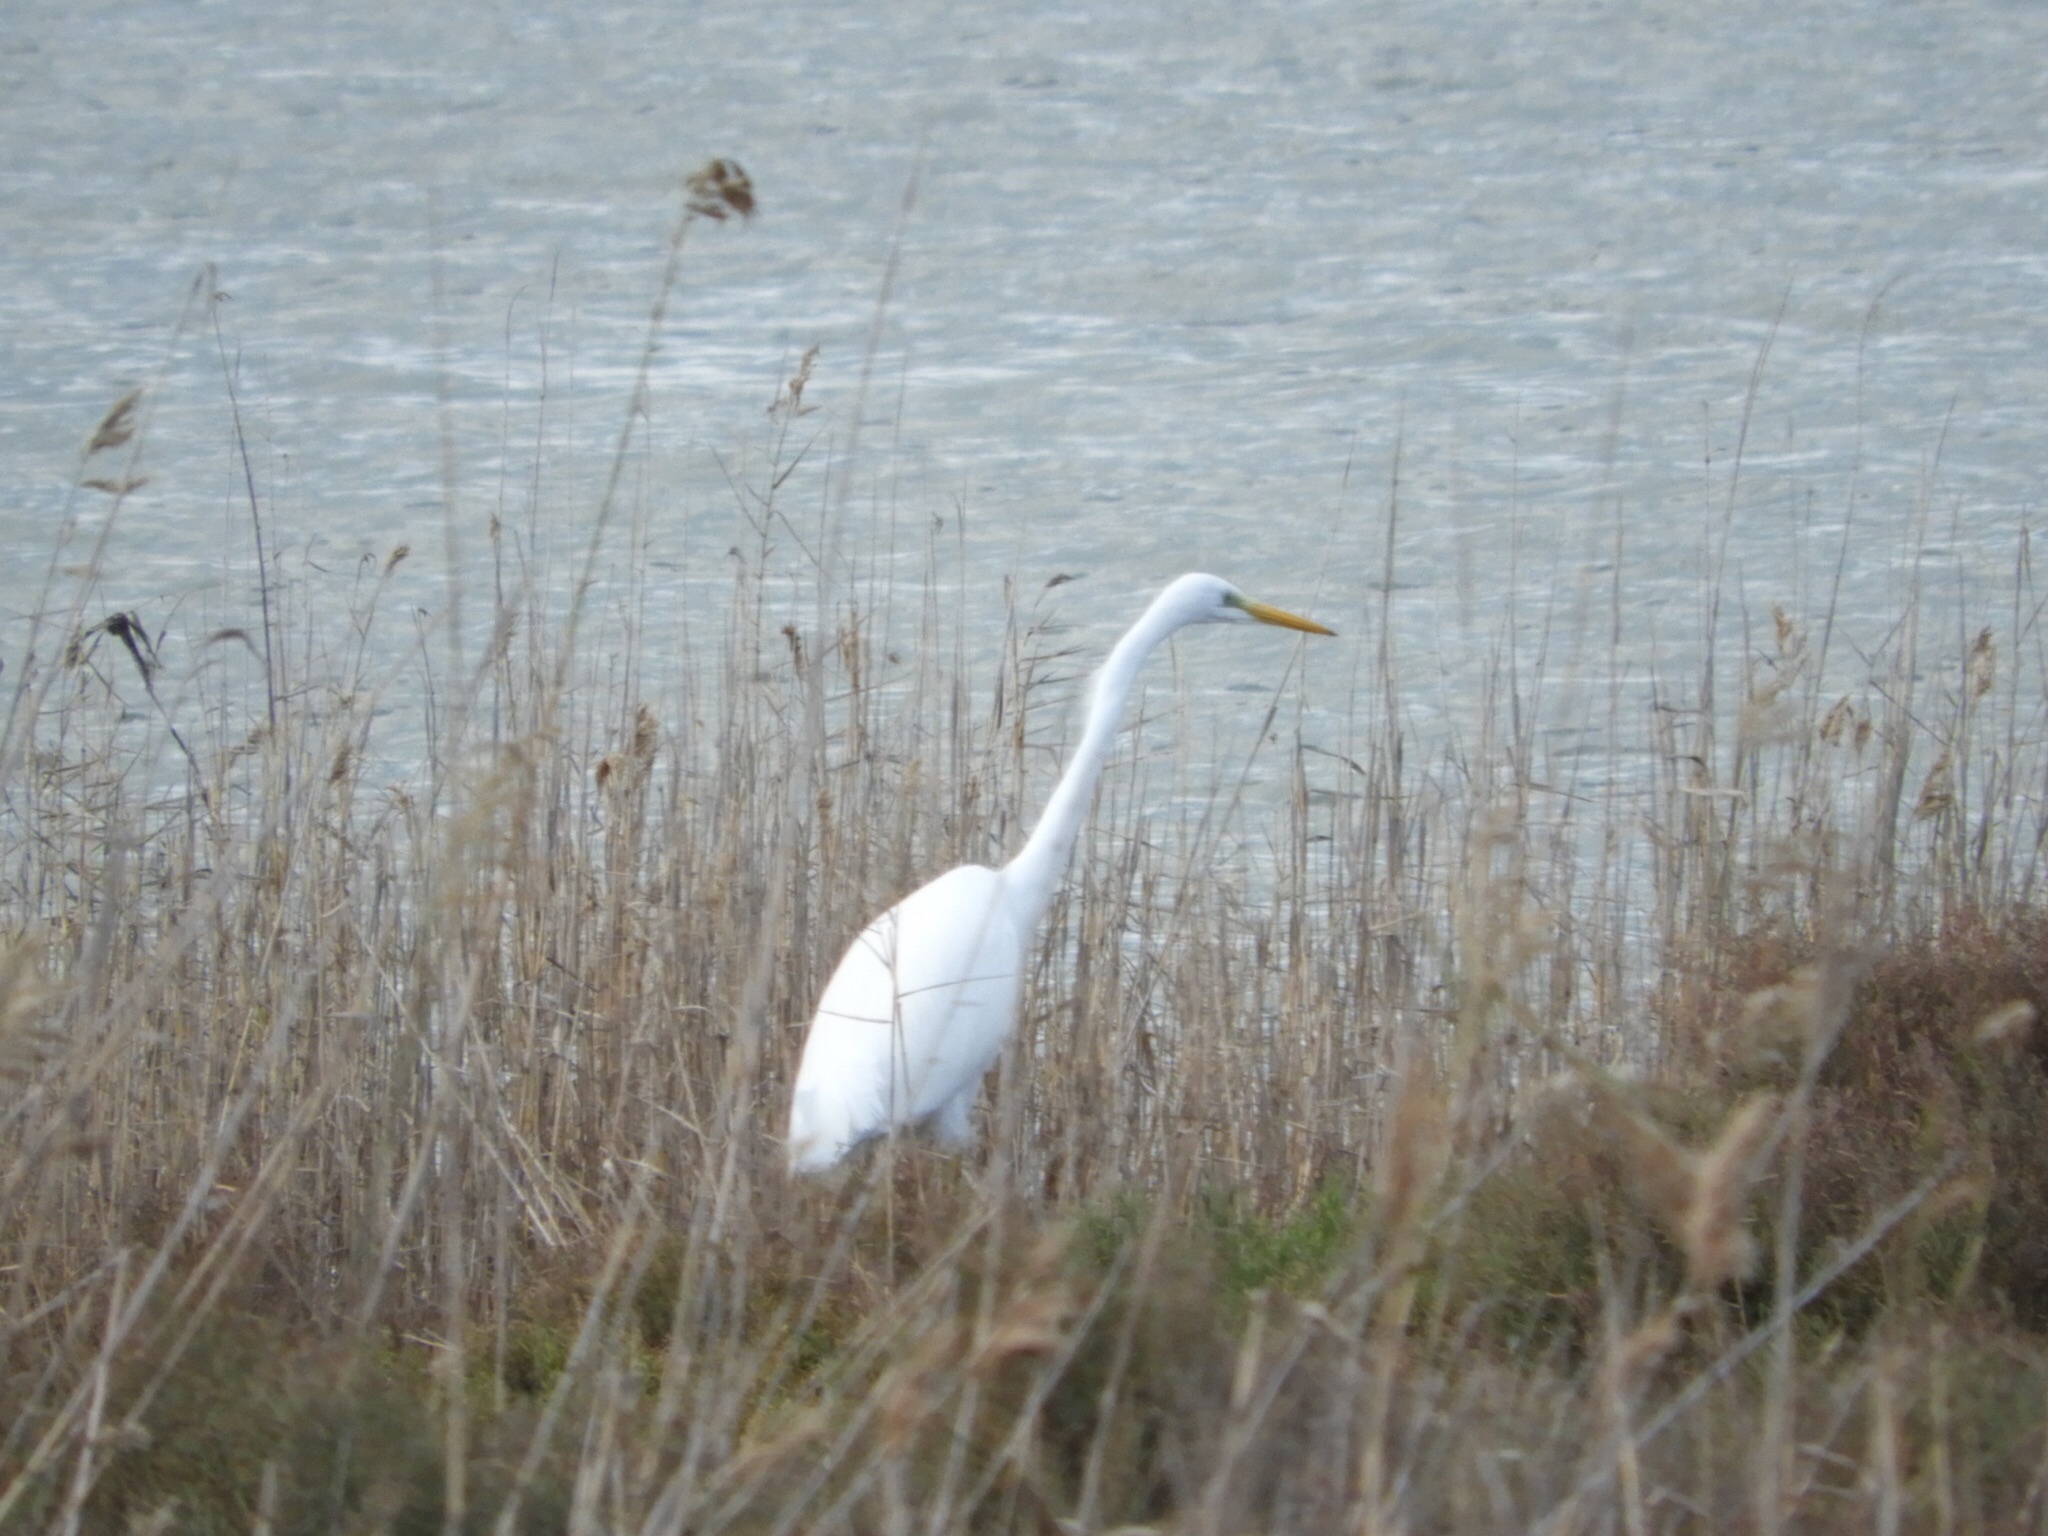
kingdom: Animalia
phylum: Chordata
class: Aves
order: Pelecaniformes
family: Ardeidae
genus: Ardea
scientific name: Ardea alba
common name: Great egret
